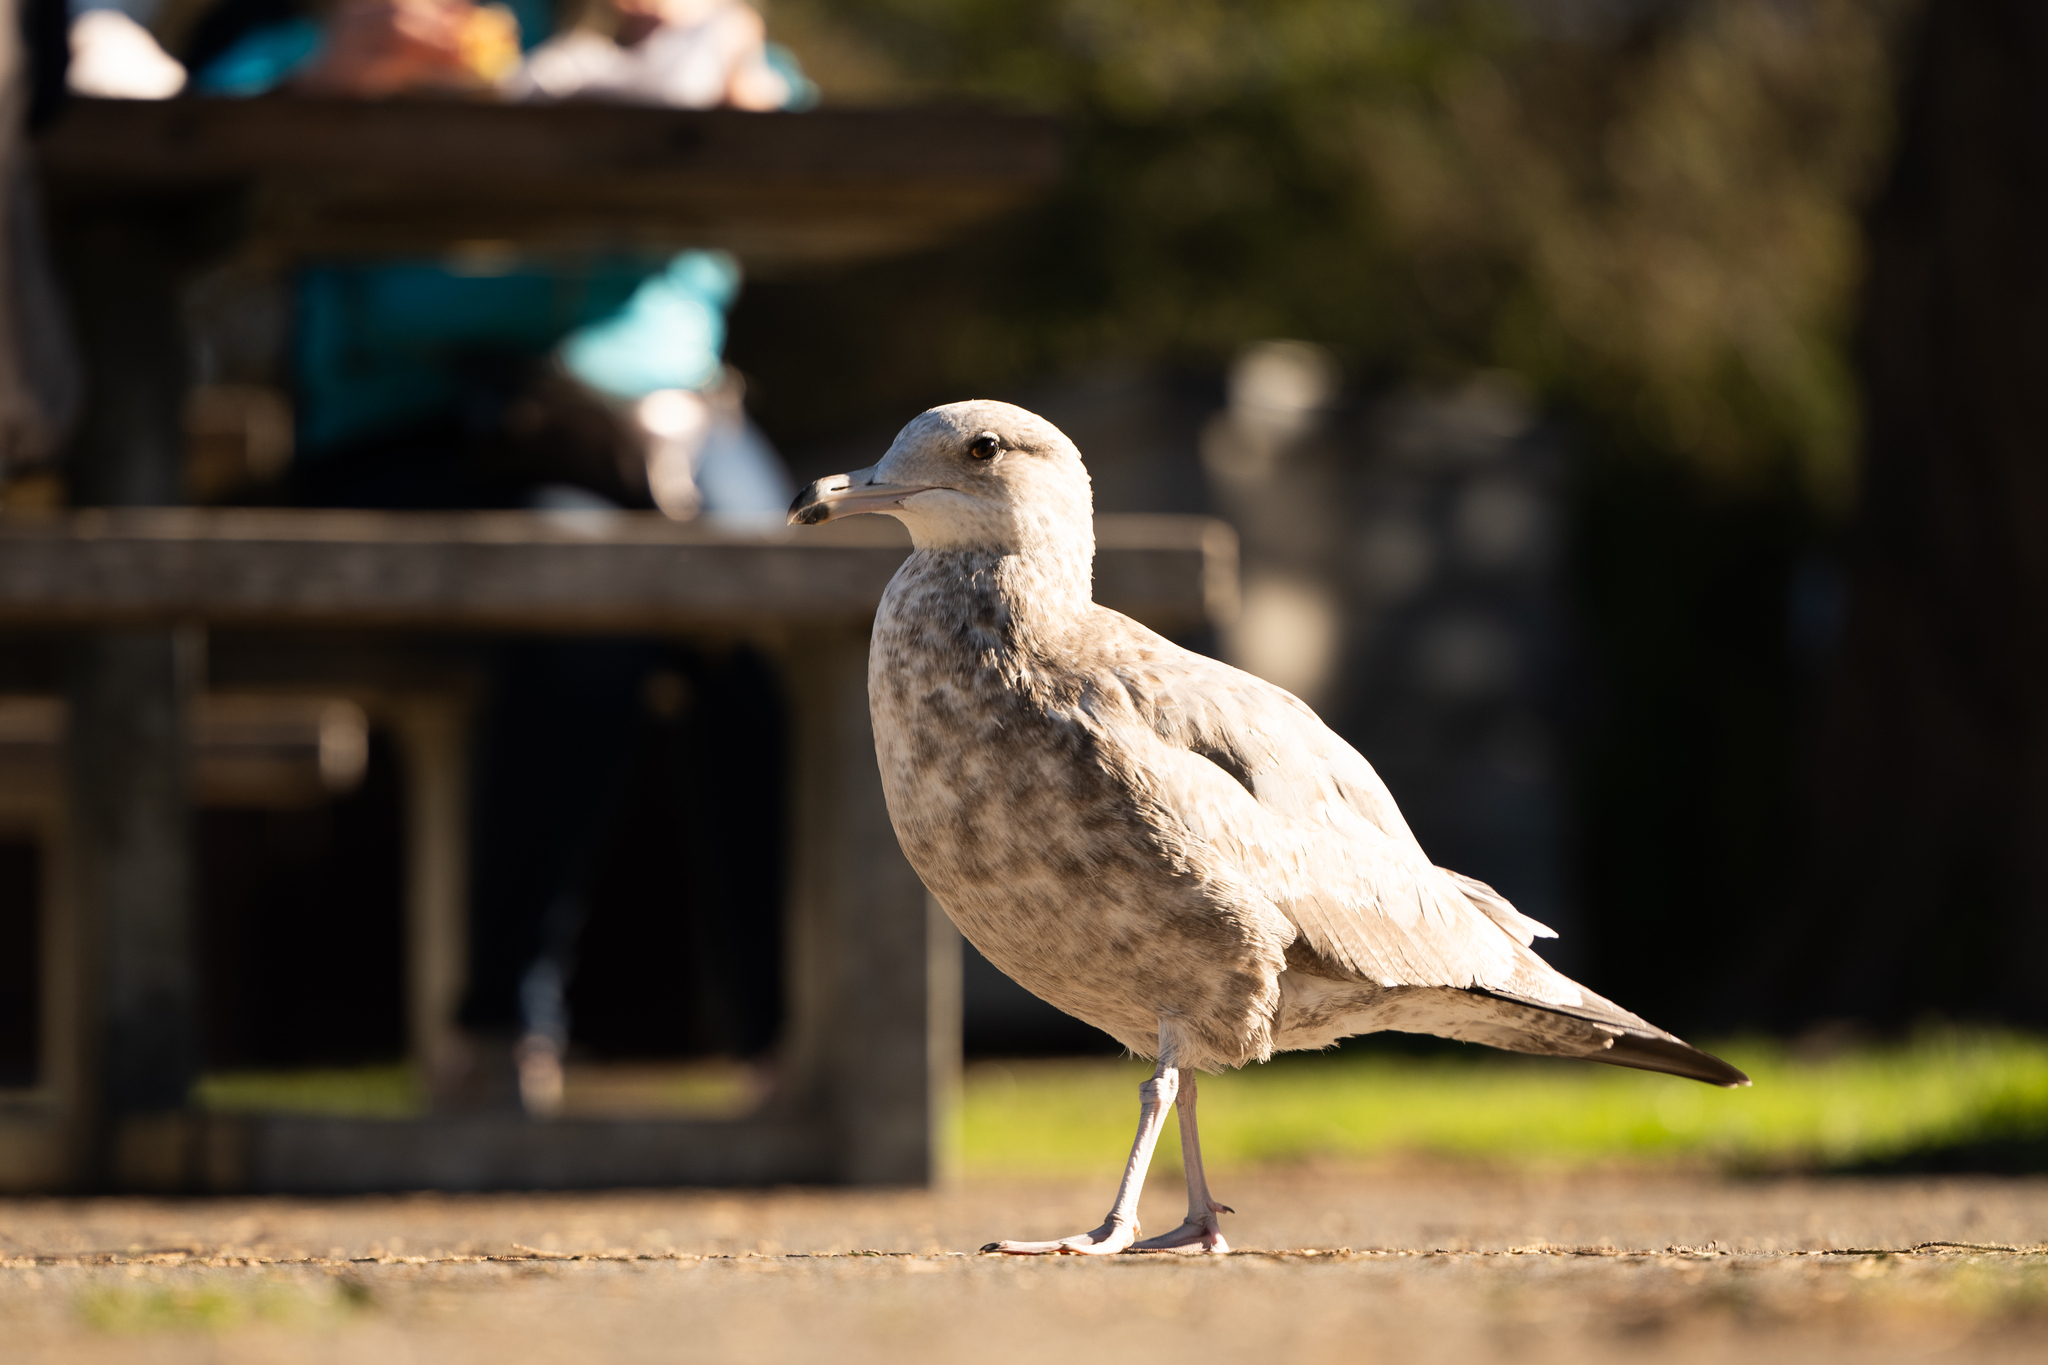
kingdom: Animalia
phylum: Chordata
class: Aves
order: Charadriiformes
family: Laridae
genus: Larus
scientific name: Larus californicus
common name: California gull
